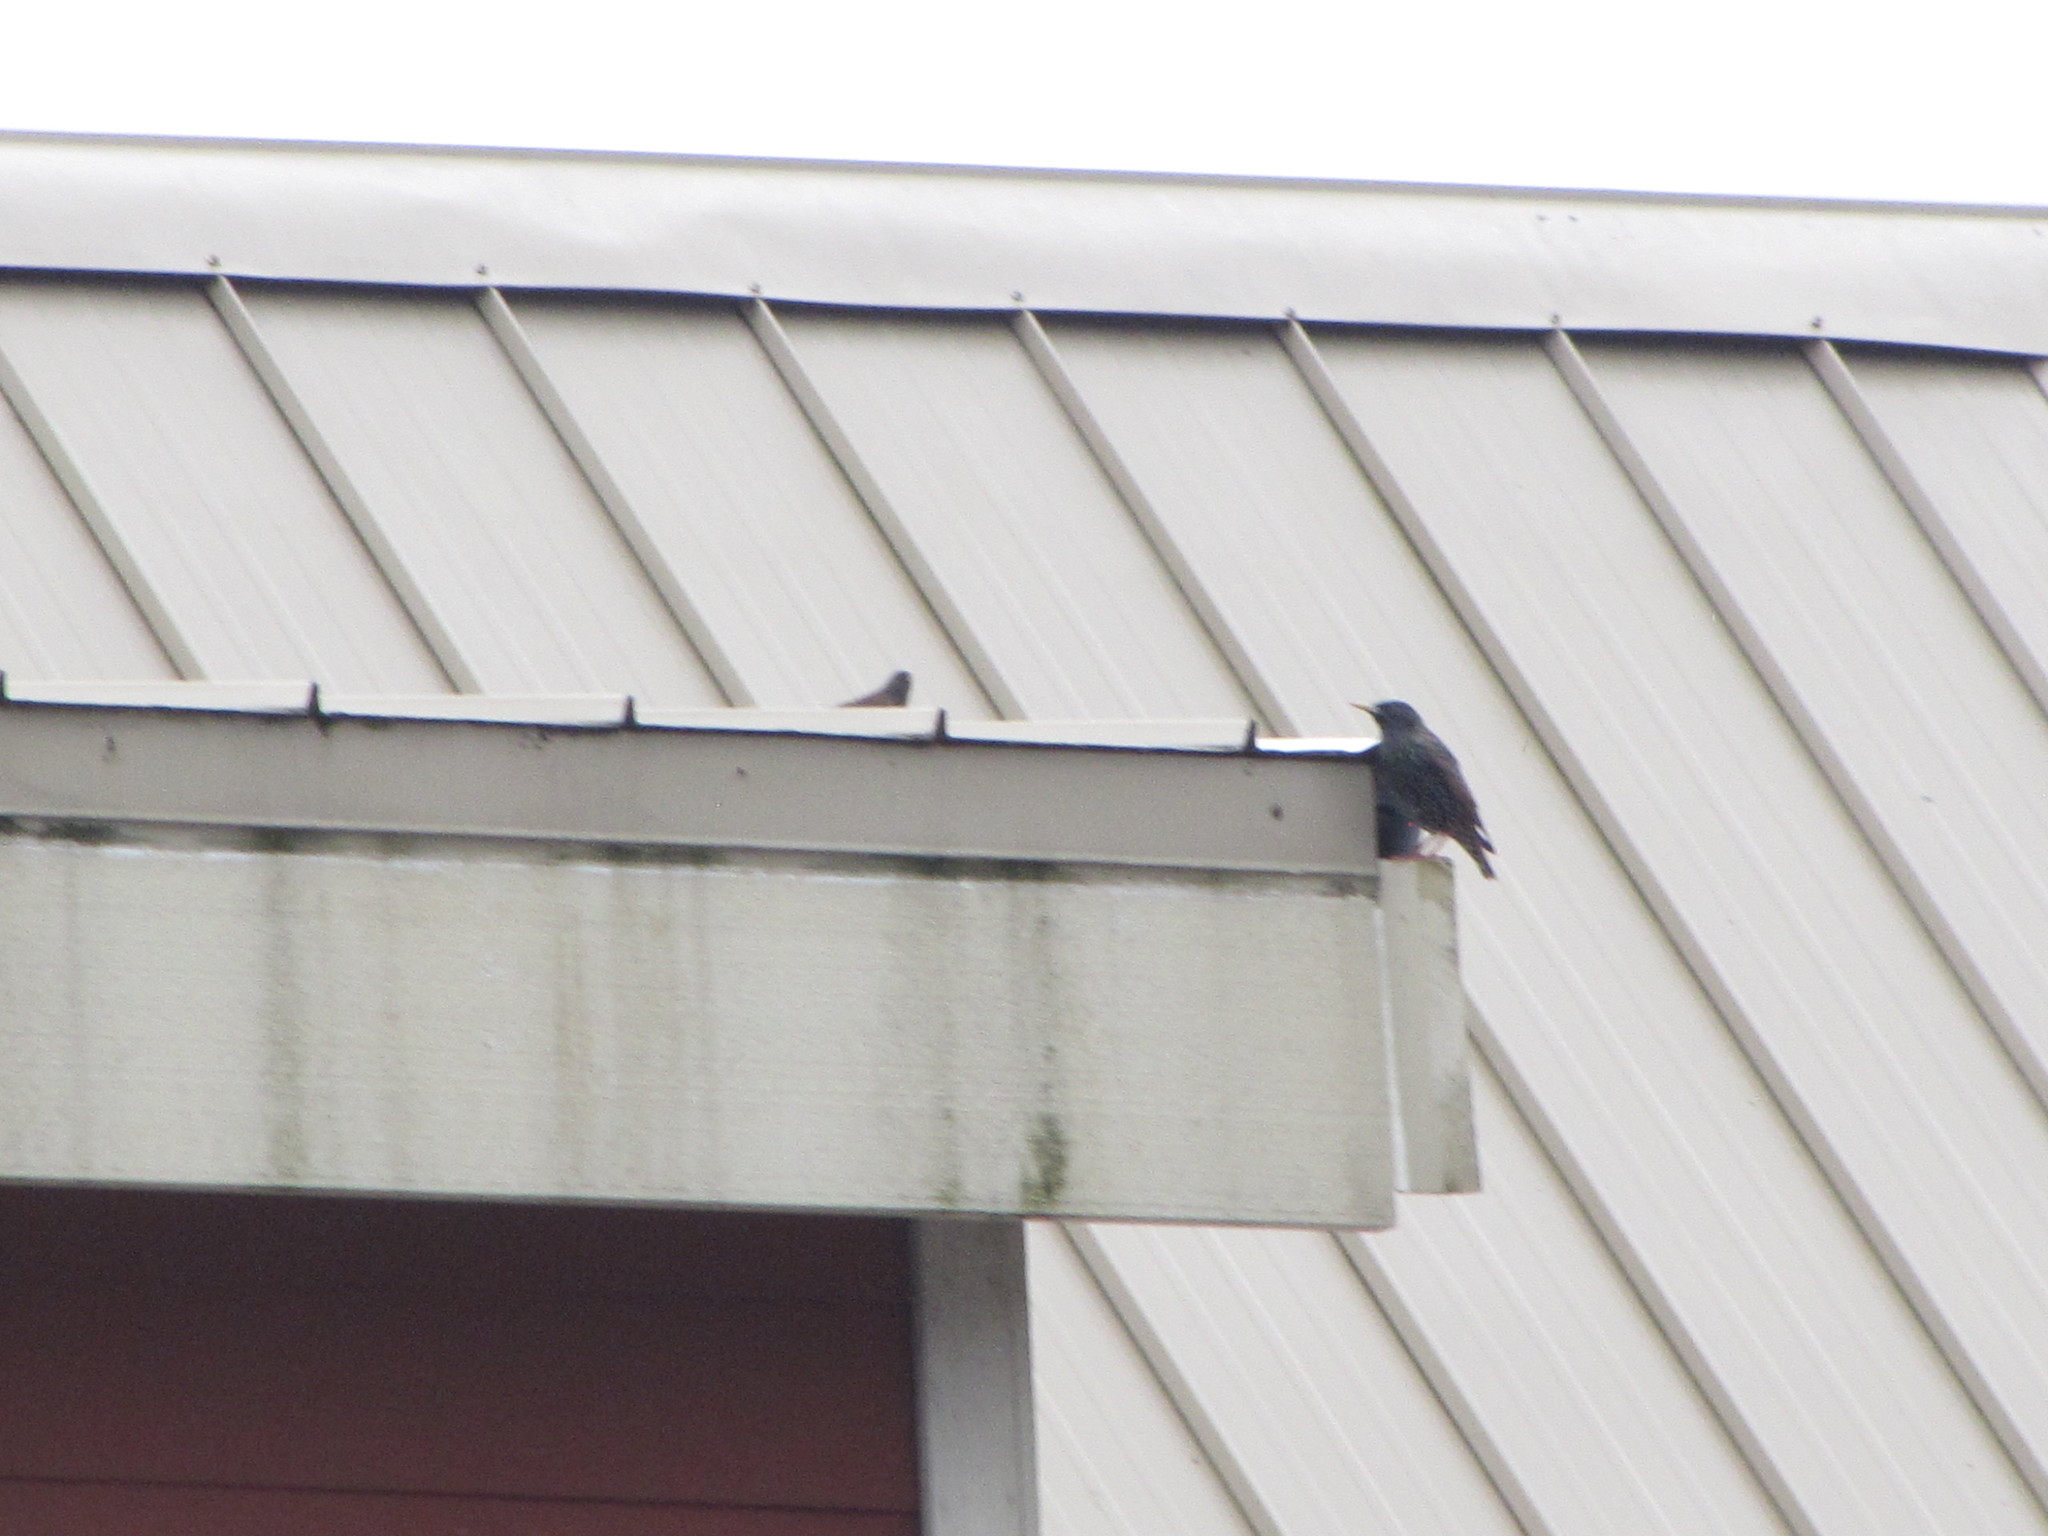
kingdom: Animalia
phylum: Chordata
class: Aves
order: Passeriformes
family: Sturnidae
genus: Sturnus
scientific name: Sturnus vulgaris
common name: Common starling
